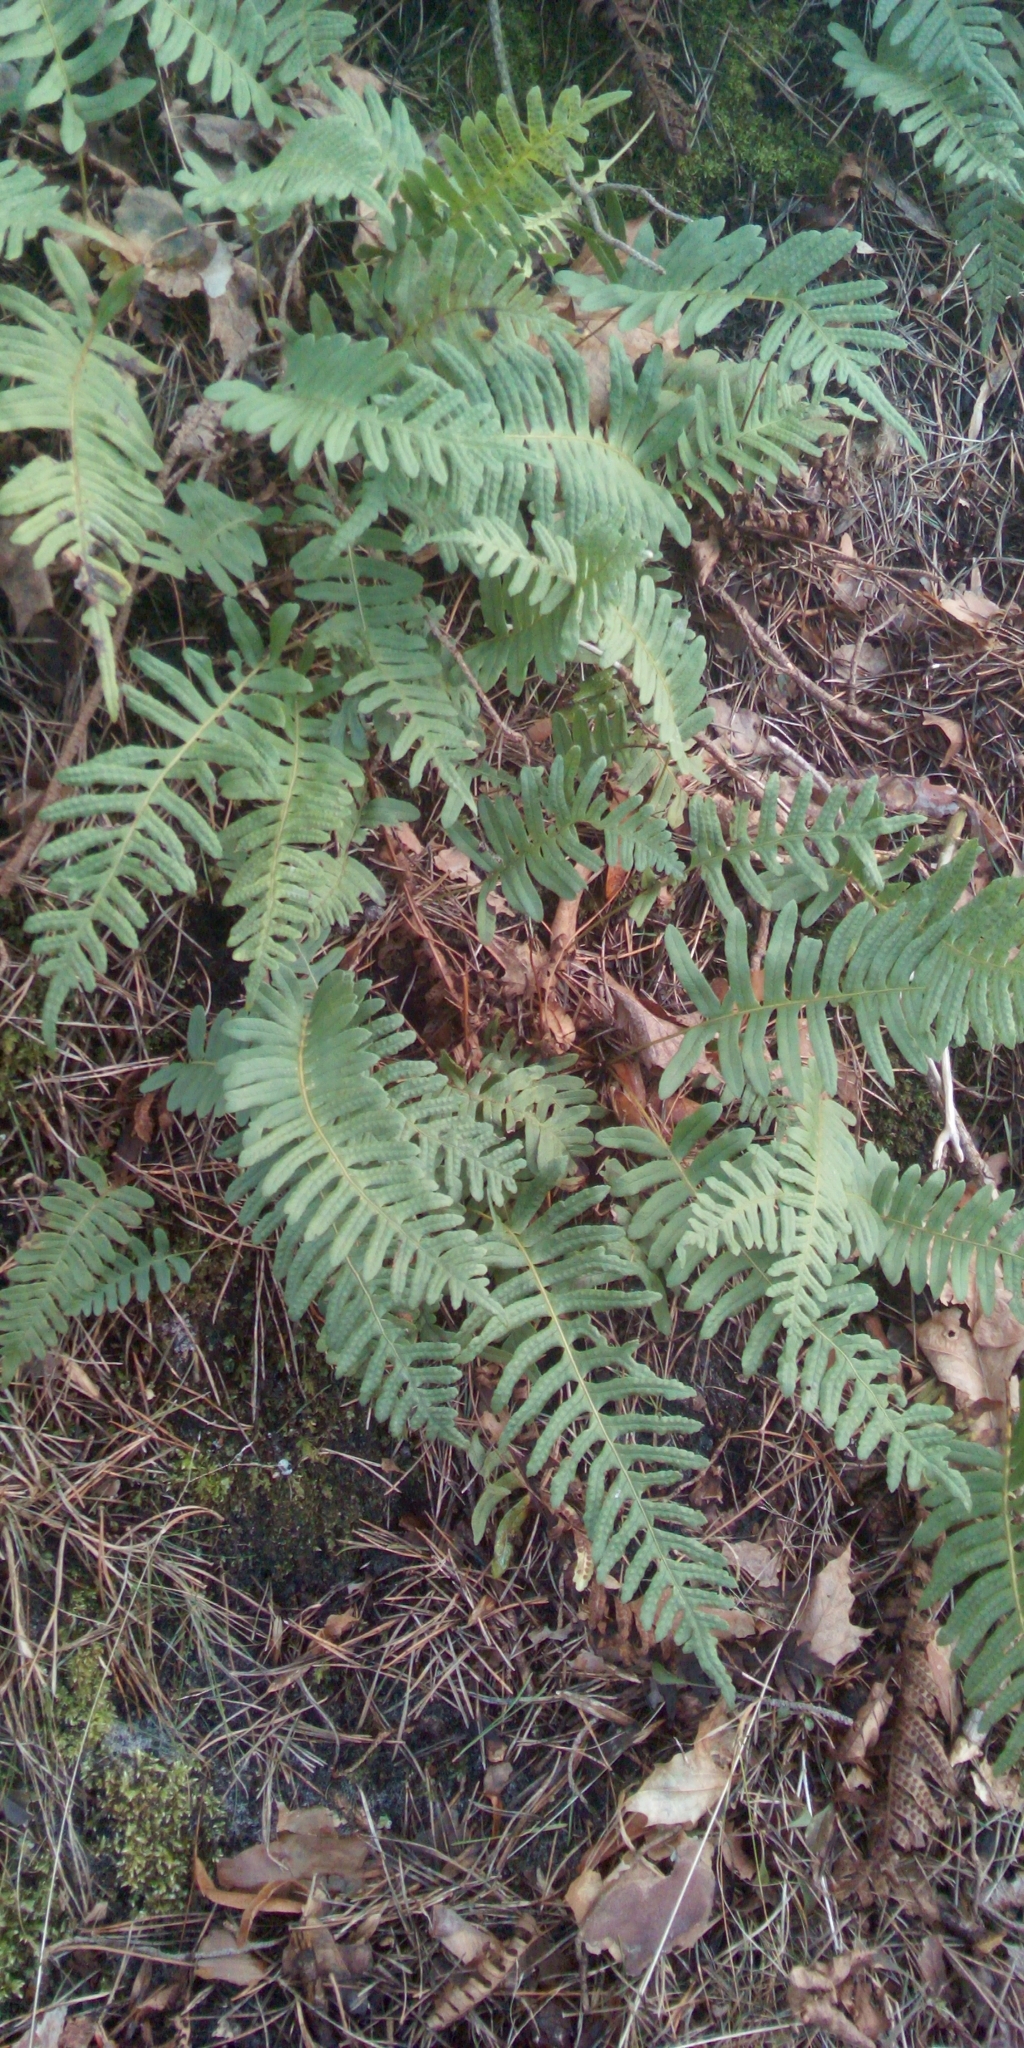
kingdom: Plantae
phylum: Tracheophyta
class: Polypodiopsida
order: Polypodiales
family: Polypodiaceae
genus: Polypodium
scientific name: Polypodium vulgare
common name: Common polypody
